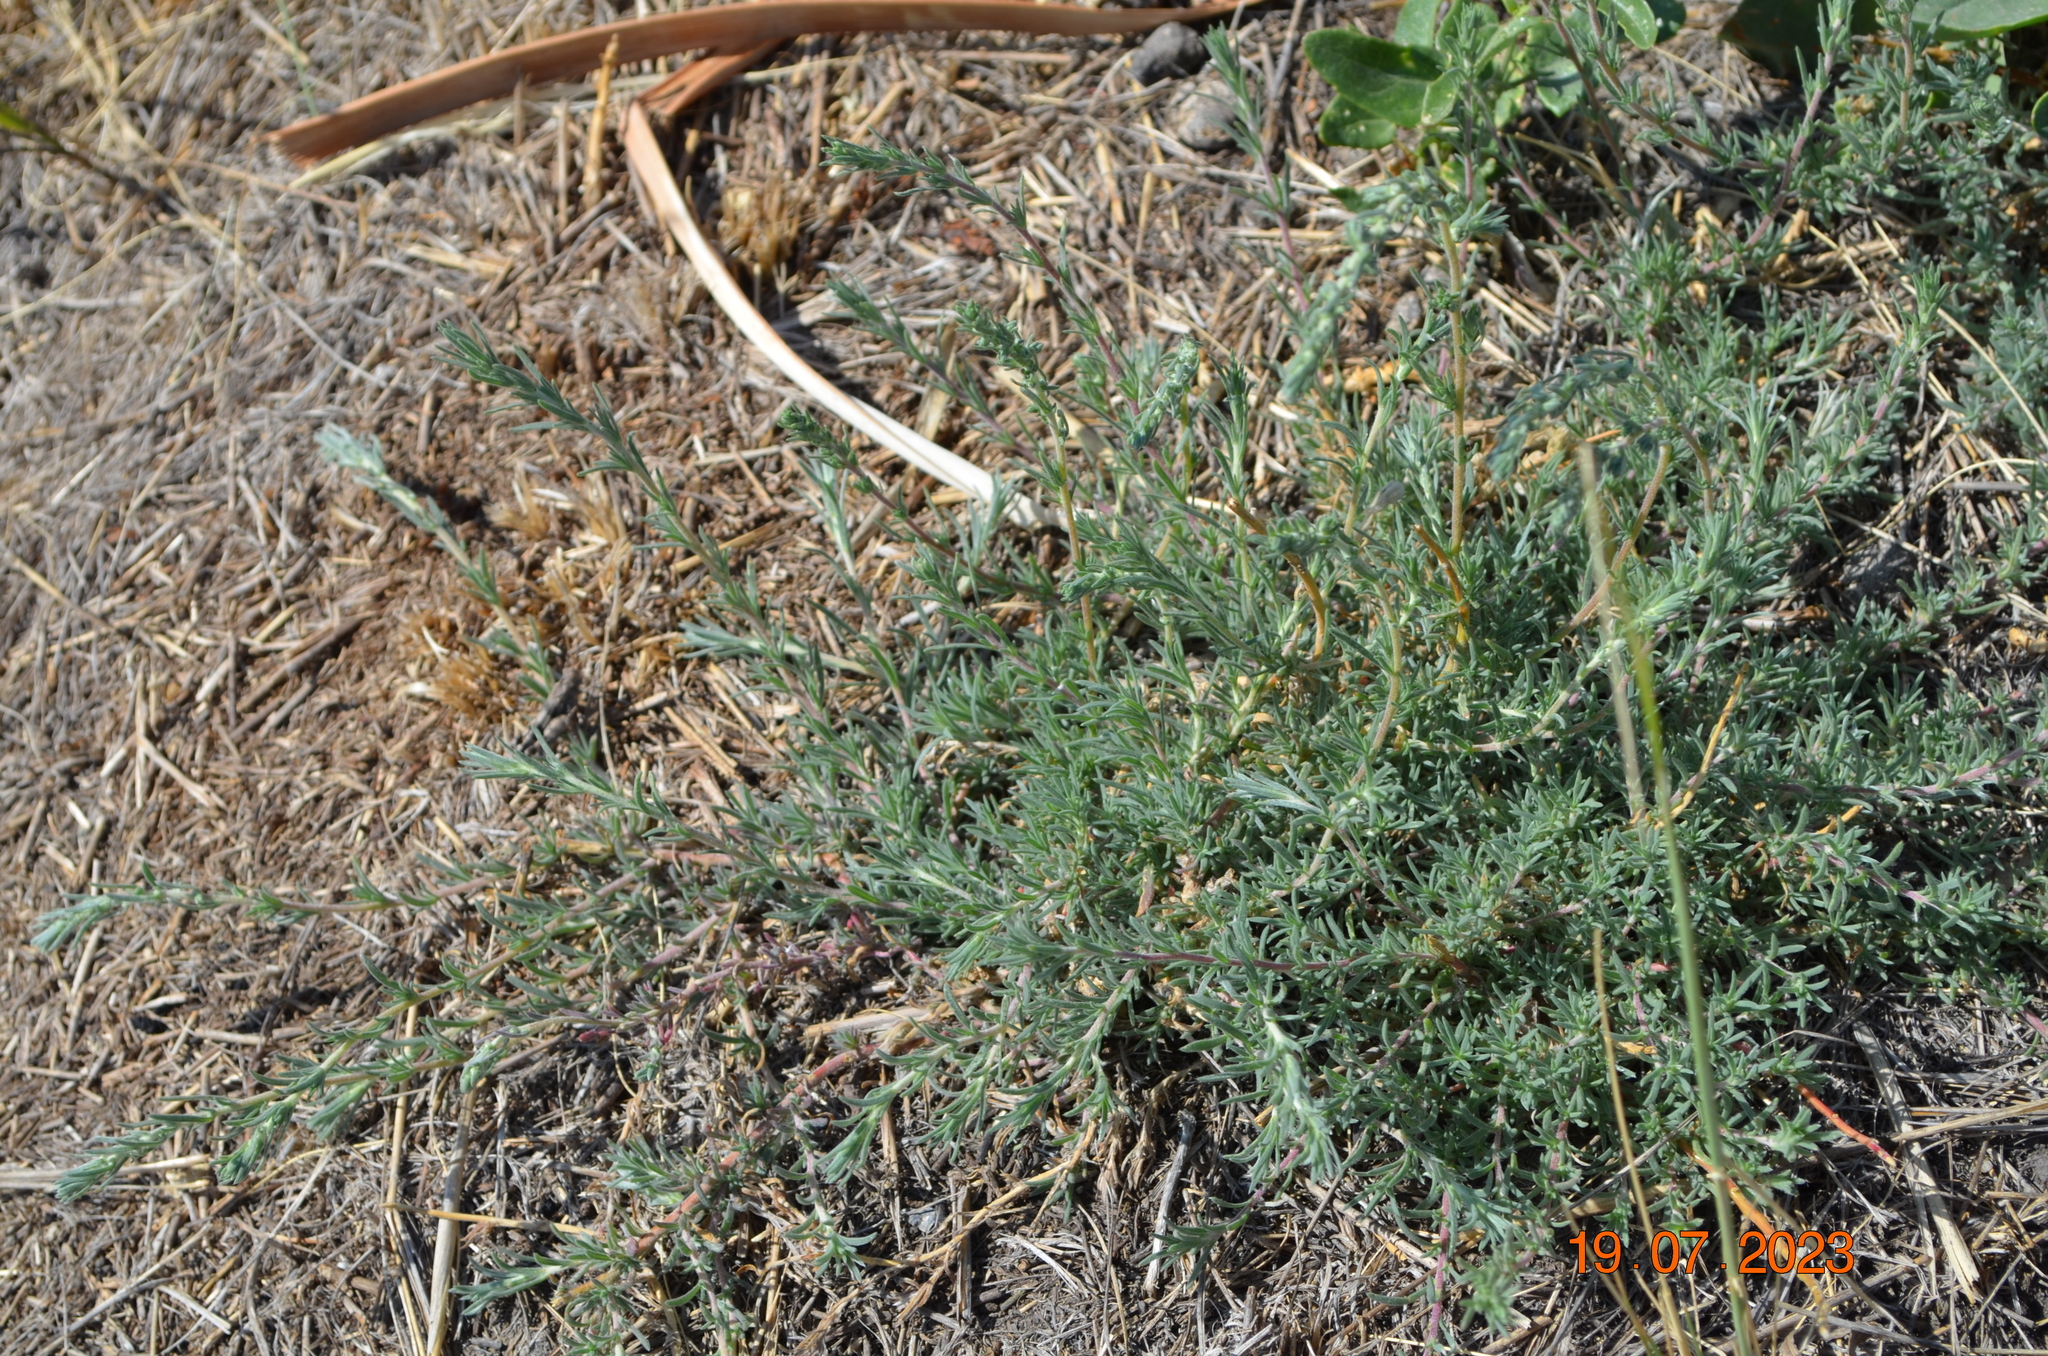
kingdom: Plantae
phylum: Tracheophyta
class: Magnoliopsida
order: Caryophyllales
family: Amaranthaceae
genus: Camphorosma
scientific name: Camphorosma monspeliaca
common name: Camphorfume
